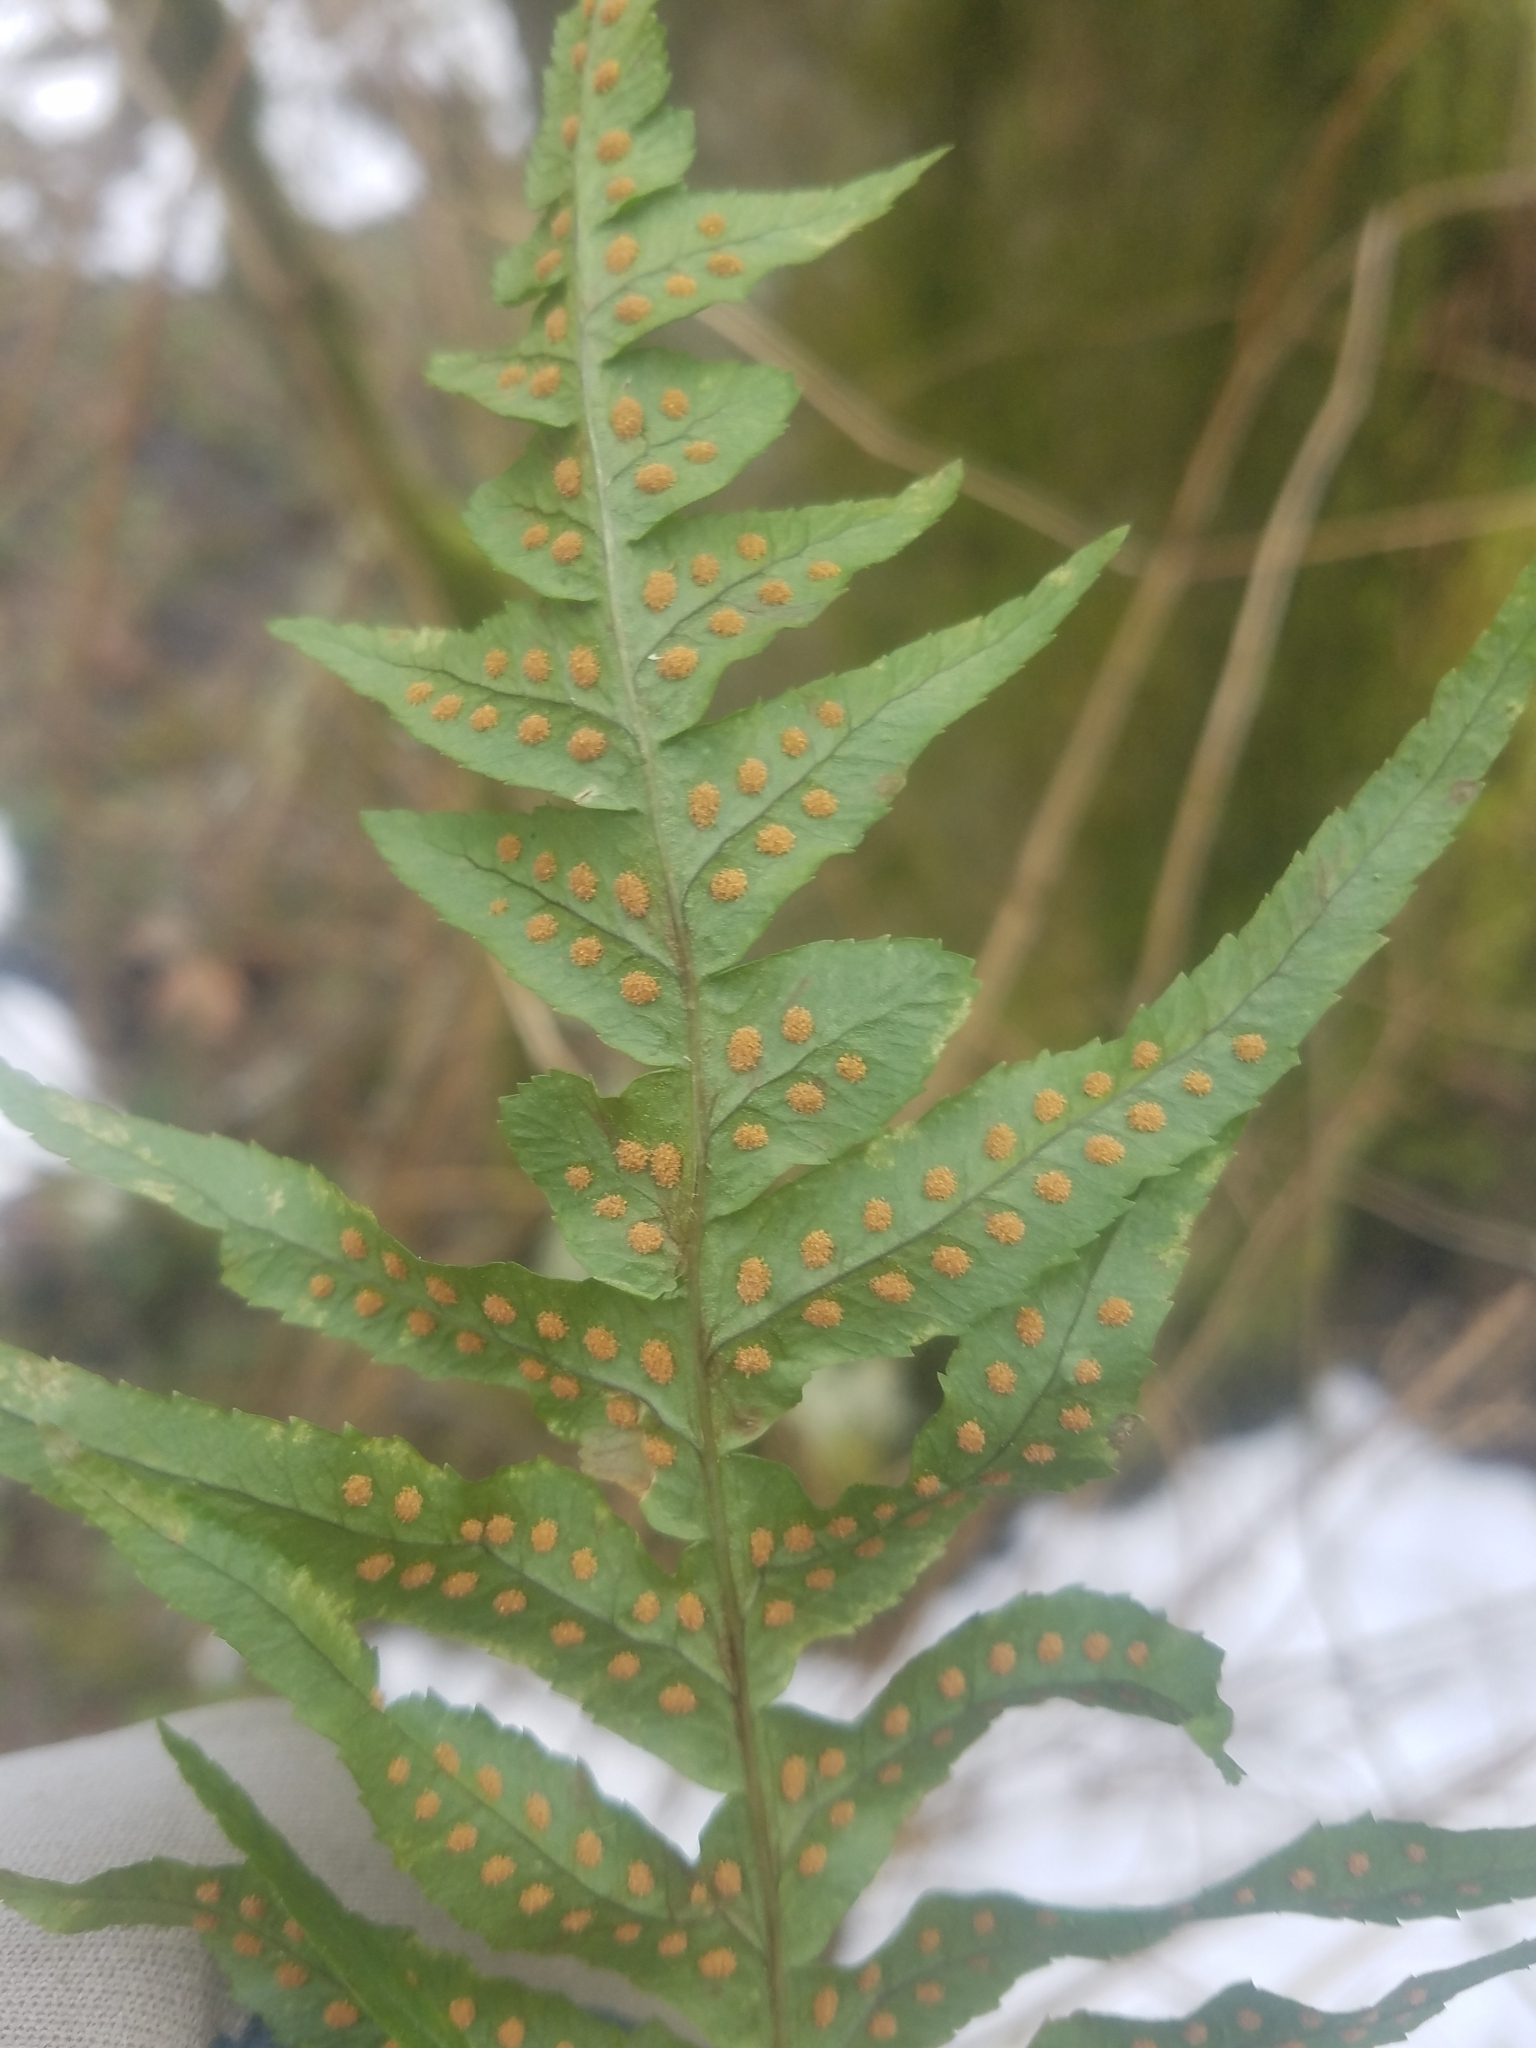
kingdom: Plantae
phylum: Tracheophyta
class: Polypodiopsida
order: Polypodiales
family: Polypodiaceae
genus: Polypodium
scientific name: Polypodium glycyrrhiza
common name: Licorice fern
